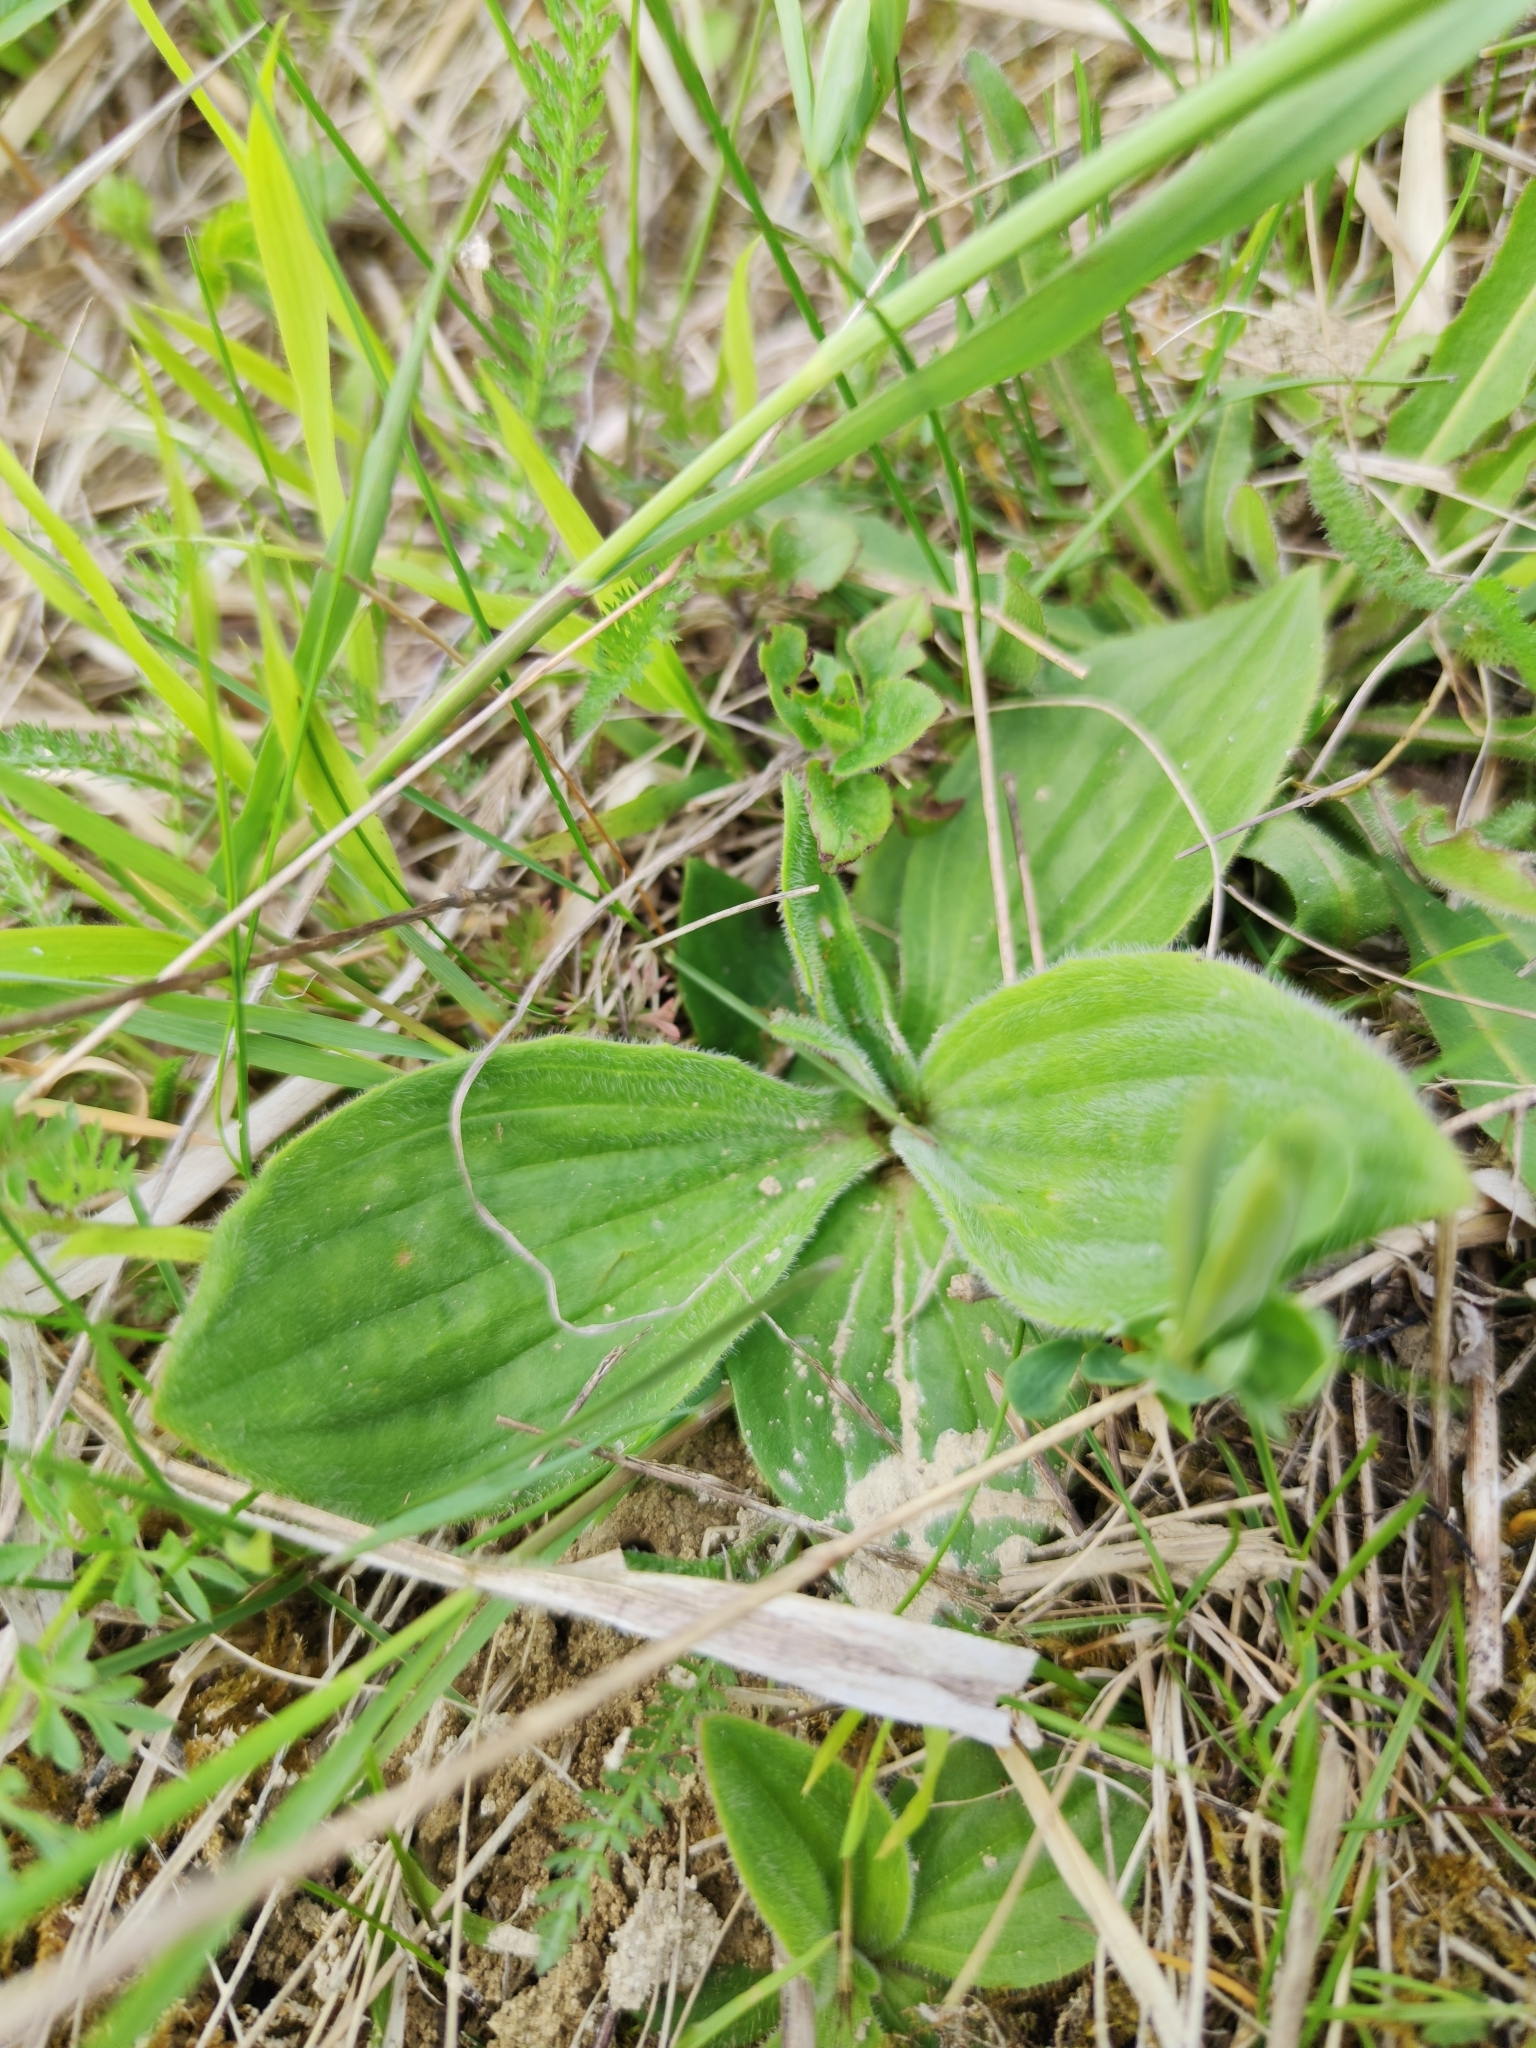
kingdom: Plantae
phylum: Tracheophyta
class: Magnoliopsida
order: Lamiales
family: Plantaginaceae
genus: Plantago
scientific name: Plantago media
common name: Hoary plantain
